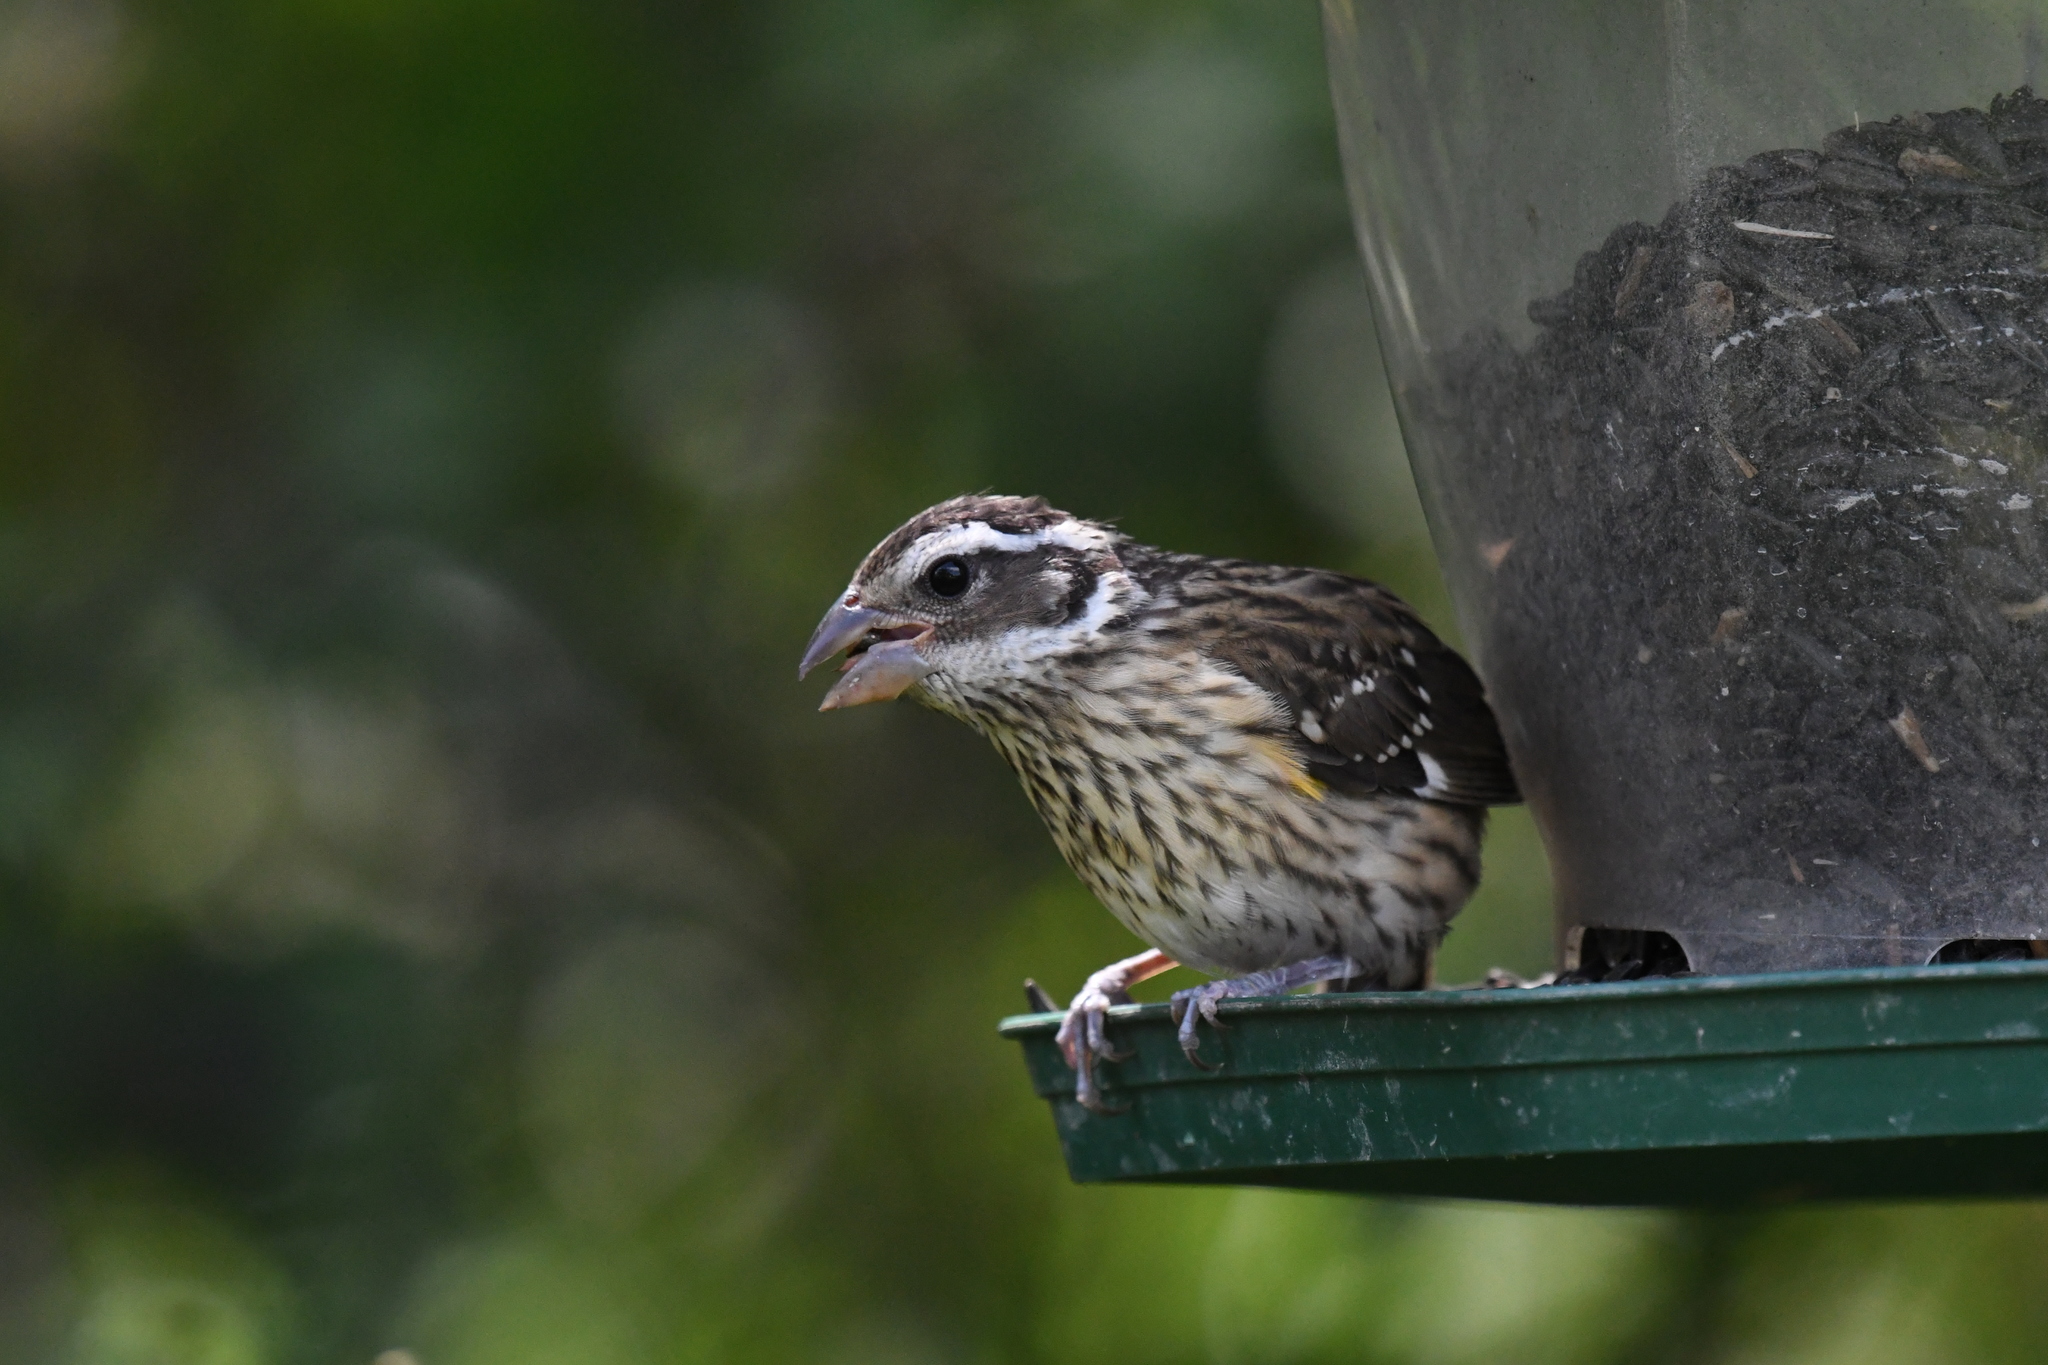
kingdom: Animalia
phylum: Chordata
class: Aves
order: Passeriformes
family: Cardinalidae
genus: Pheucticus
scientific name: Pheucticus ludovicianus
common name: Rose-breasted grosbeak
